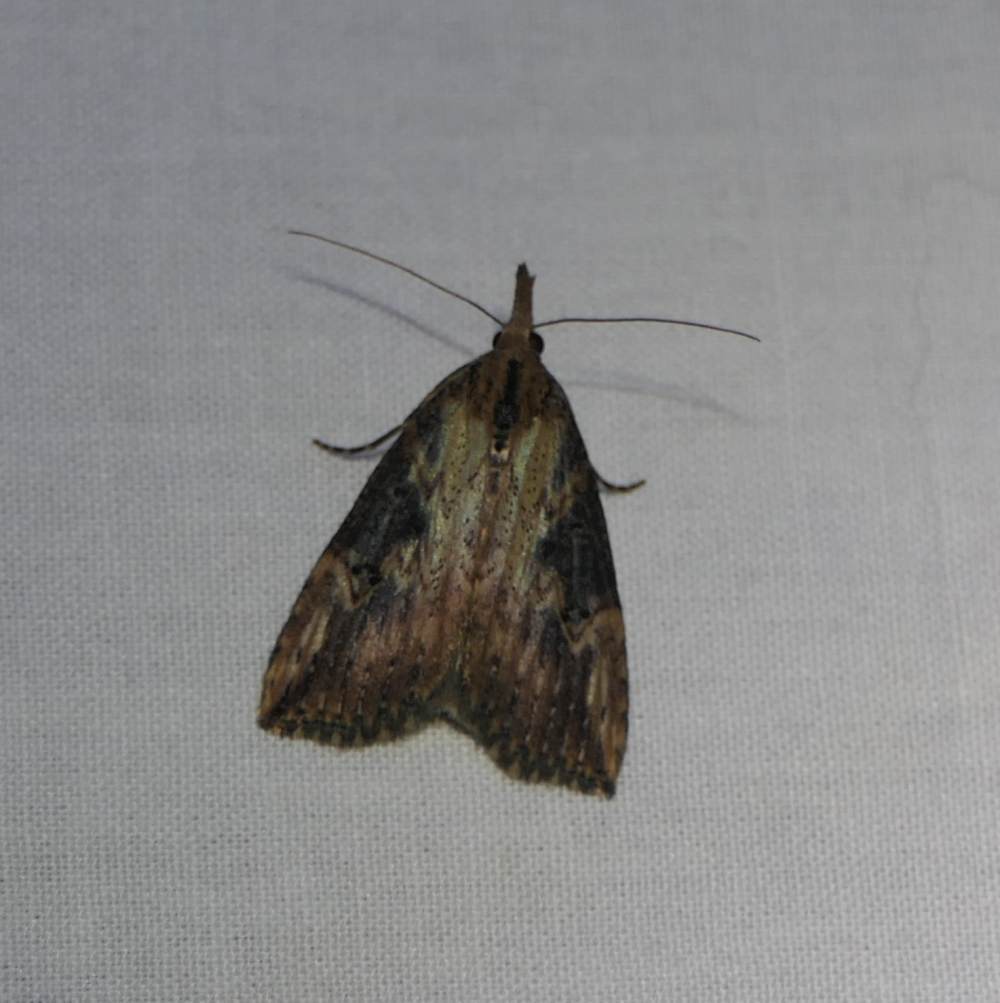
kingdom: Animalia
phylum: Arthropoda
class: Insecta
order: Lepidoptera
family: Erebidae
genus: Hypena
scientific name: Hypena humuli
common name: Hop vine snout
